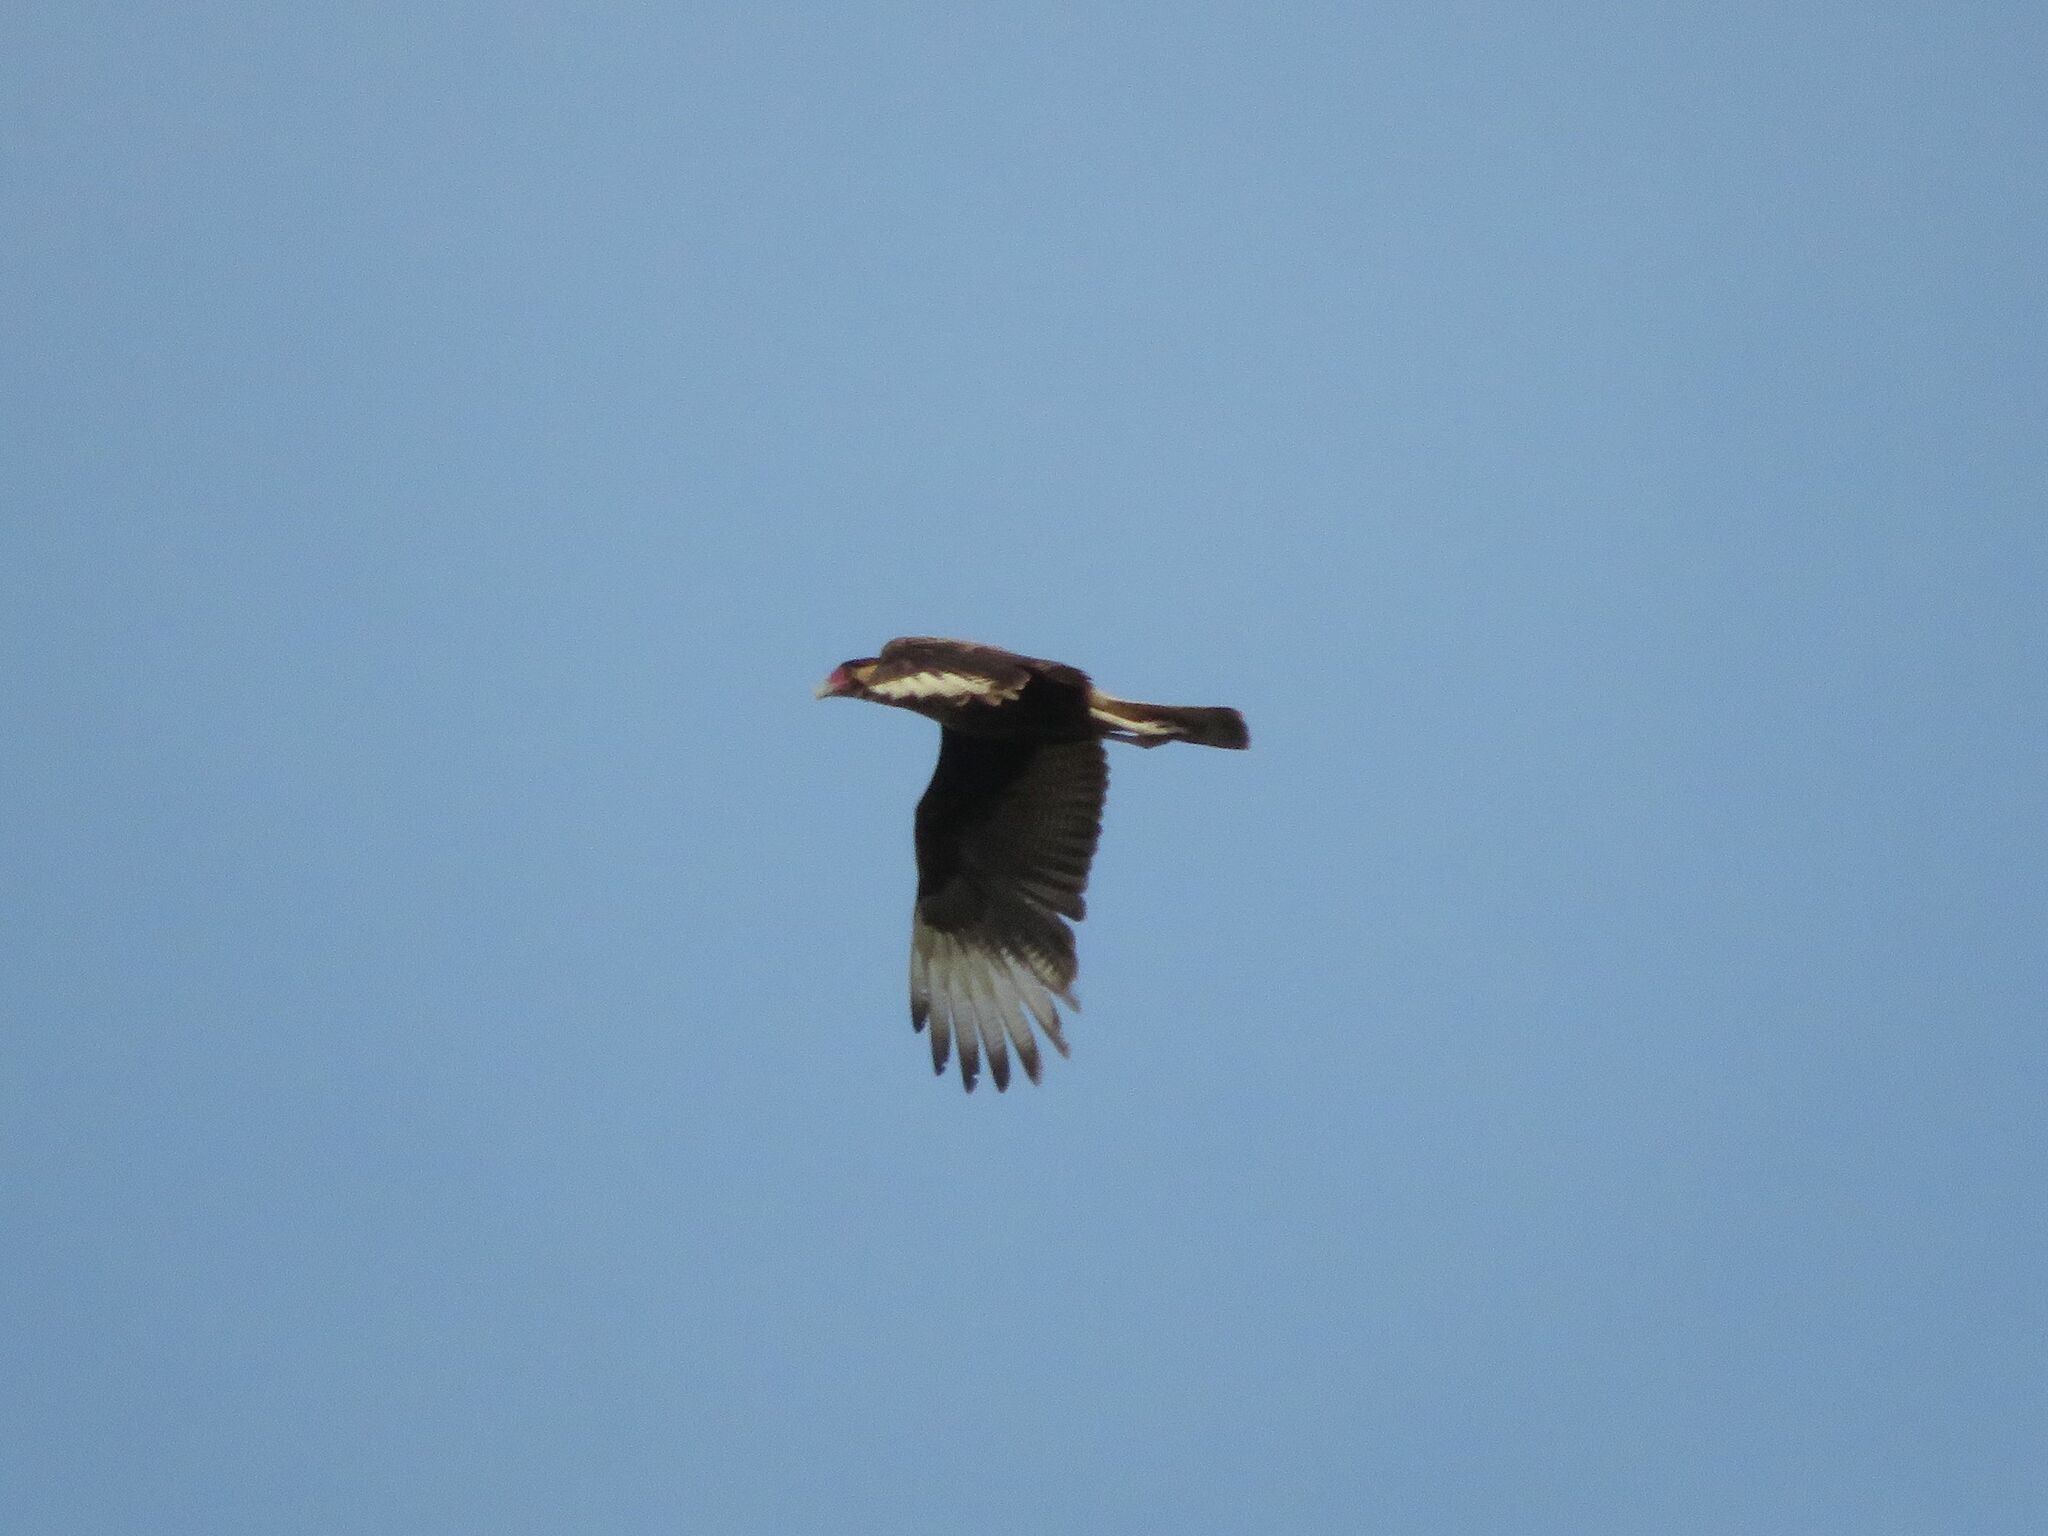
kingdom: Animalia
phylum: Chordata
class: Aves
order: Falconiformes
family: Falconidae
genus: Caracara
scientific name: Caracara plancus
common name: Southern caracara
